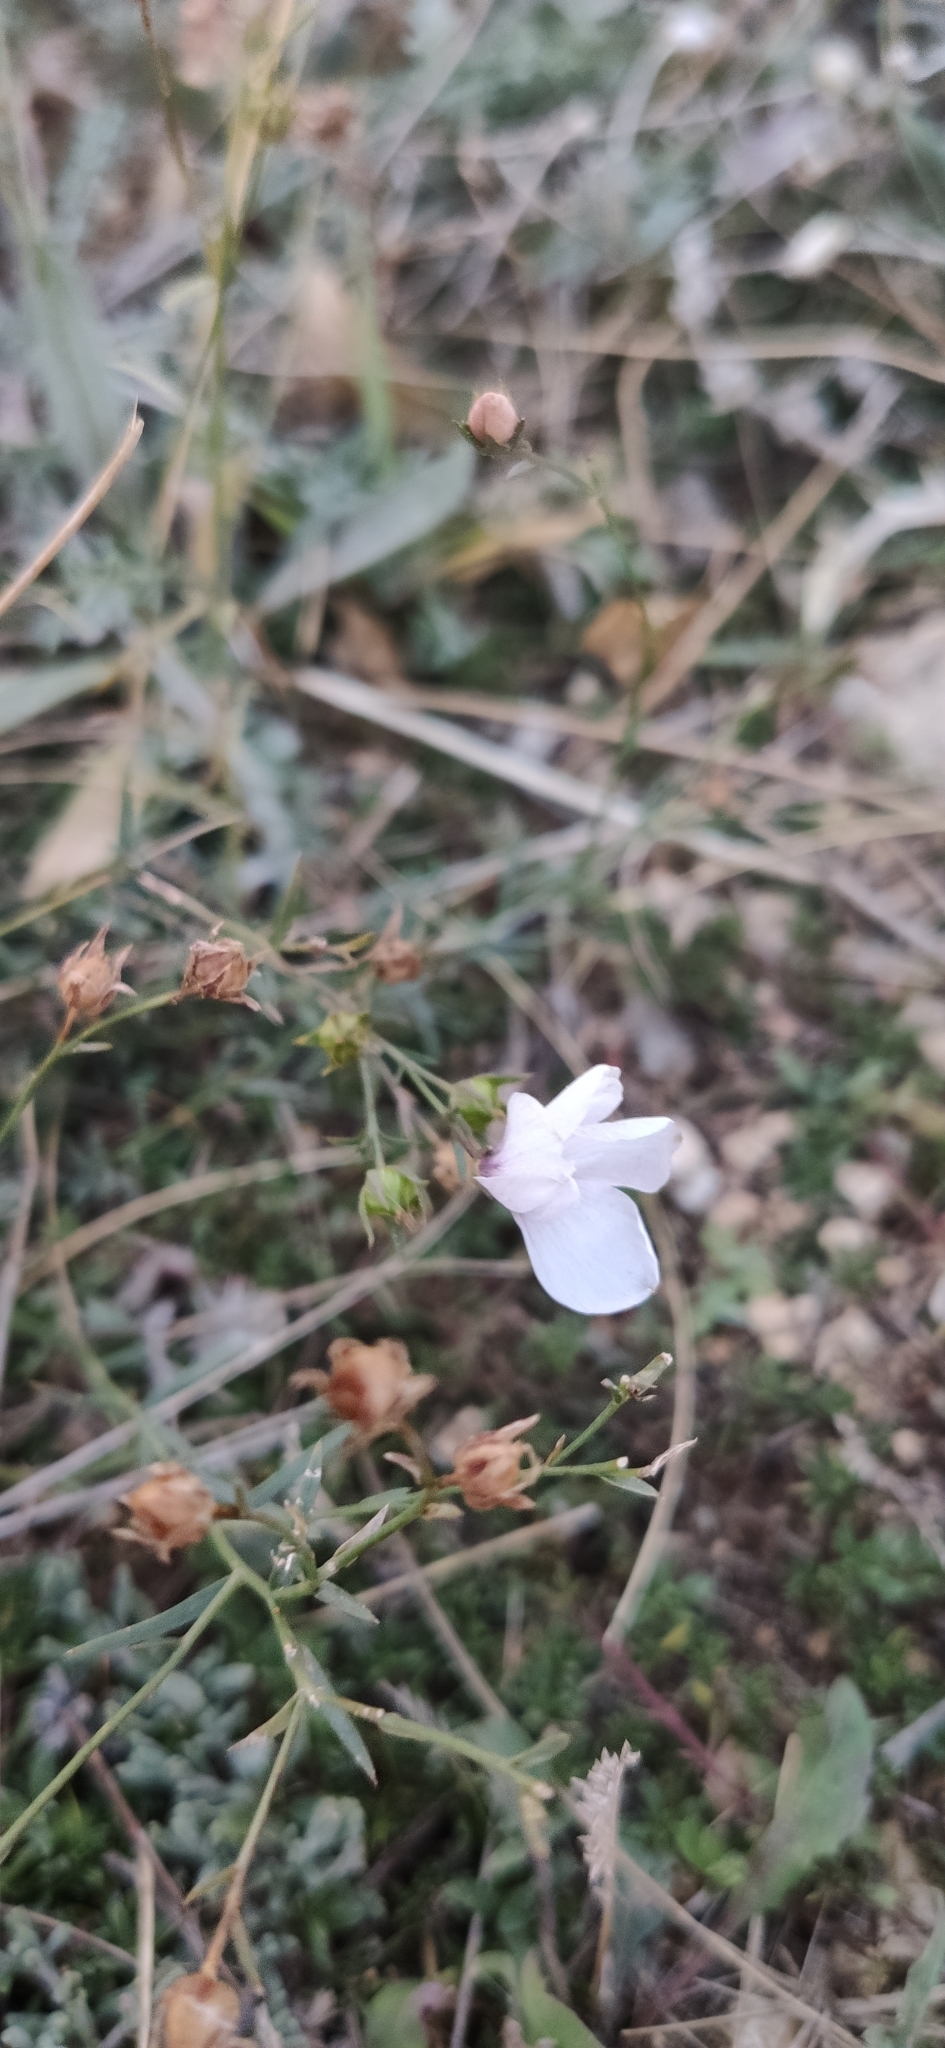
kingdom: Plantae
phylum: Tracheophyta
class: Magnoliopsida
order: Malpighiales
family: Linaceae
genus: Linum
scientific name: Linum tenuifolium
